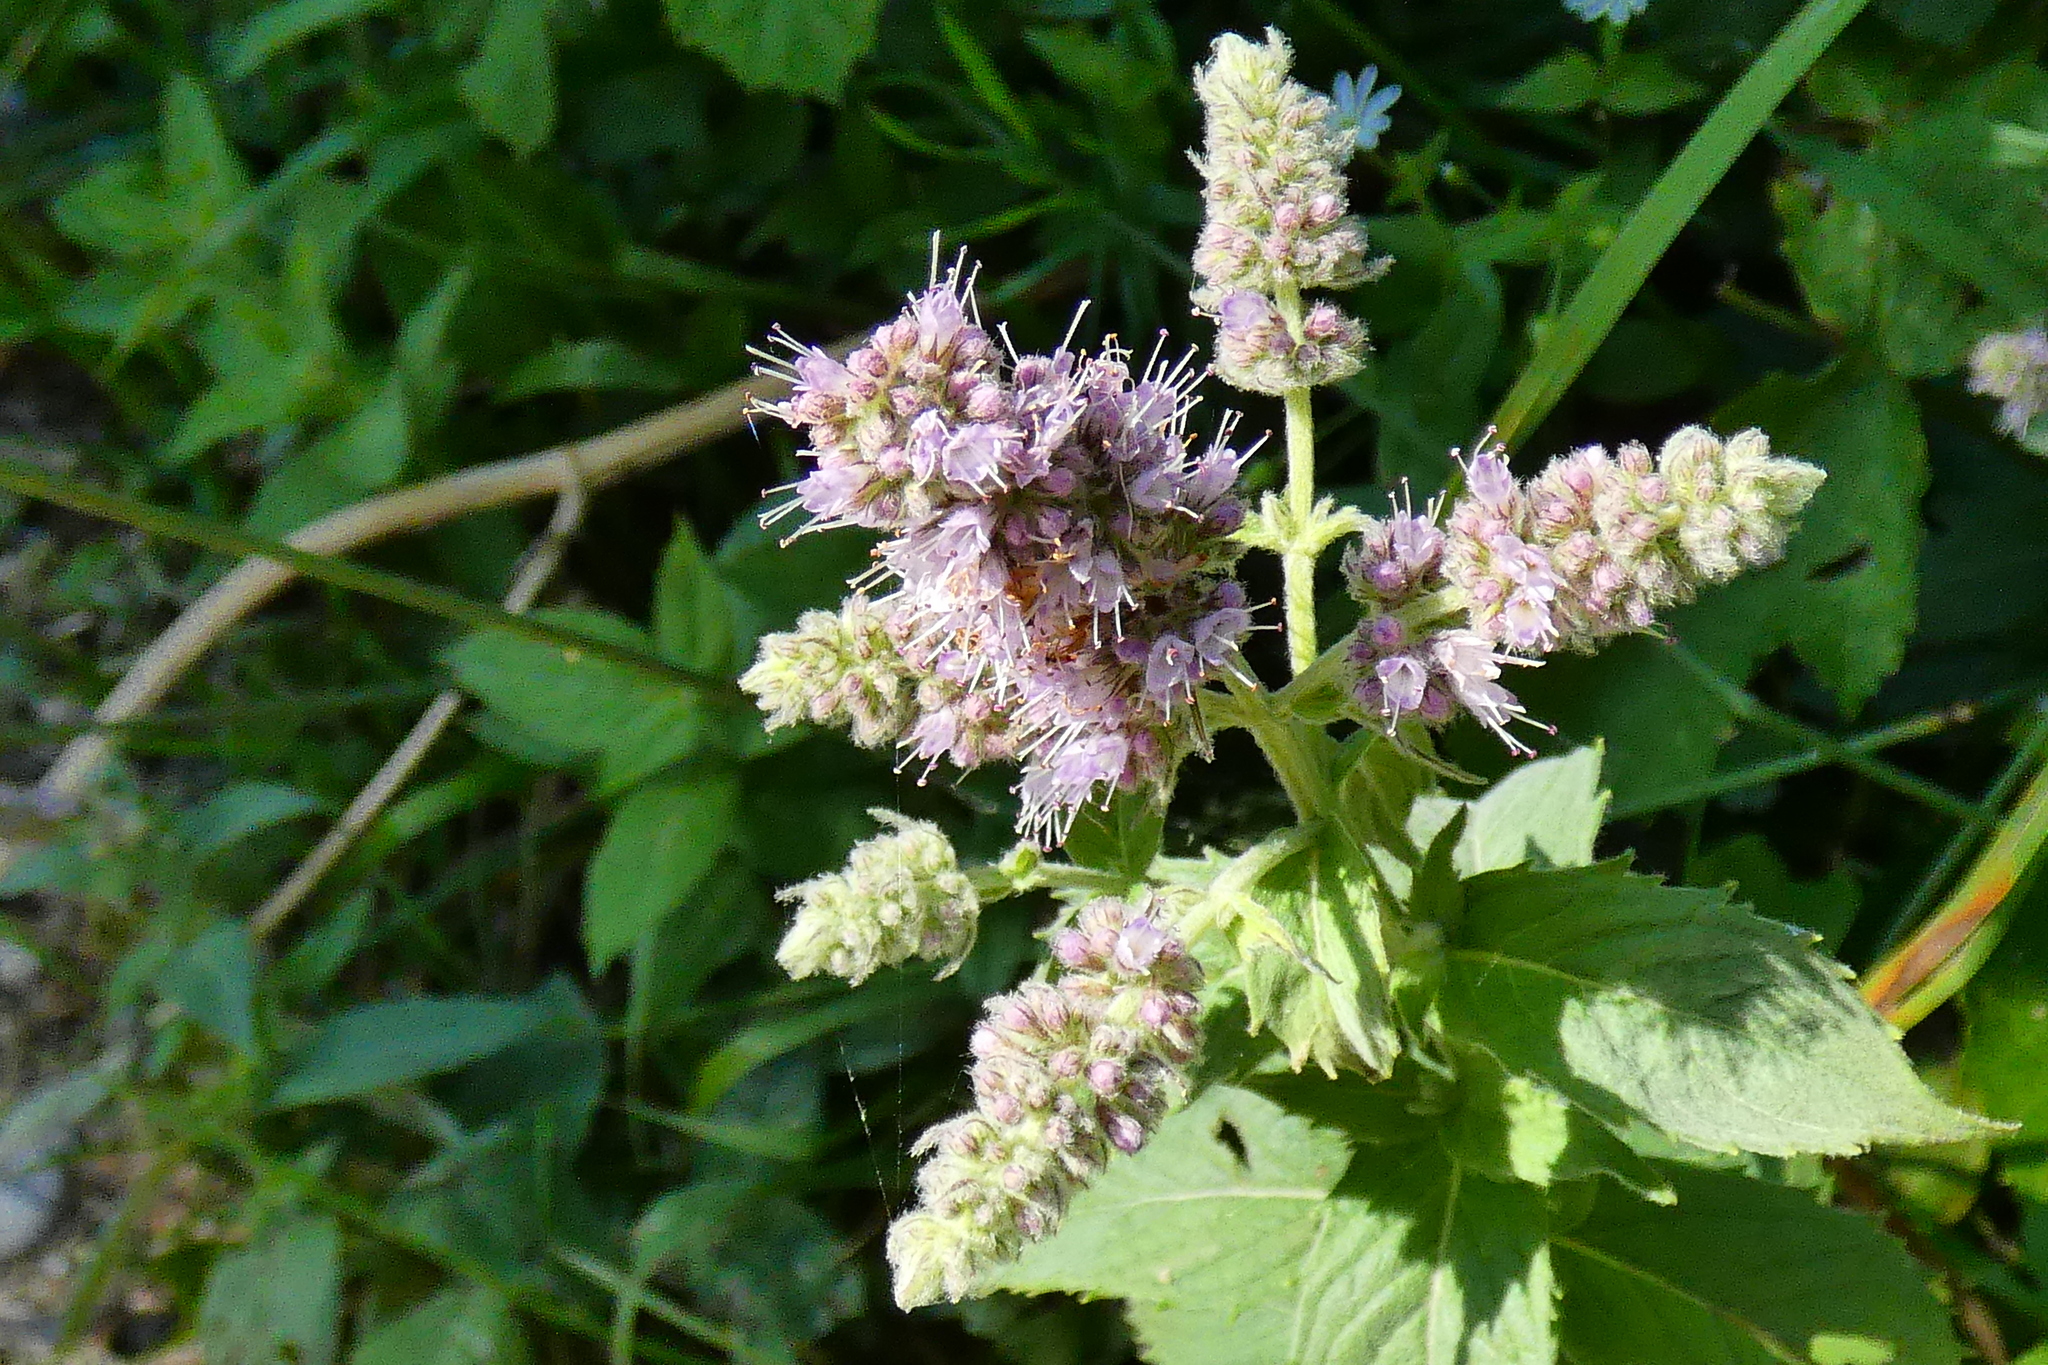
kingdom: Plantae
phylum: Tracheophyta
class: Magnoliopsida
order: Lamiales
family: Lamiaceae
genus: Mentha
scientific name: Mentha longifolia
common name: Horse mint
